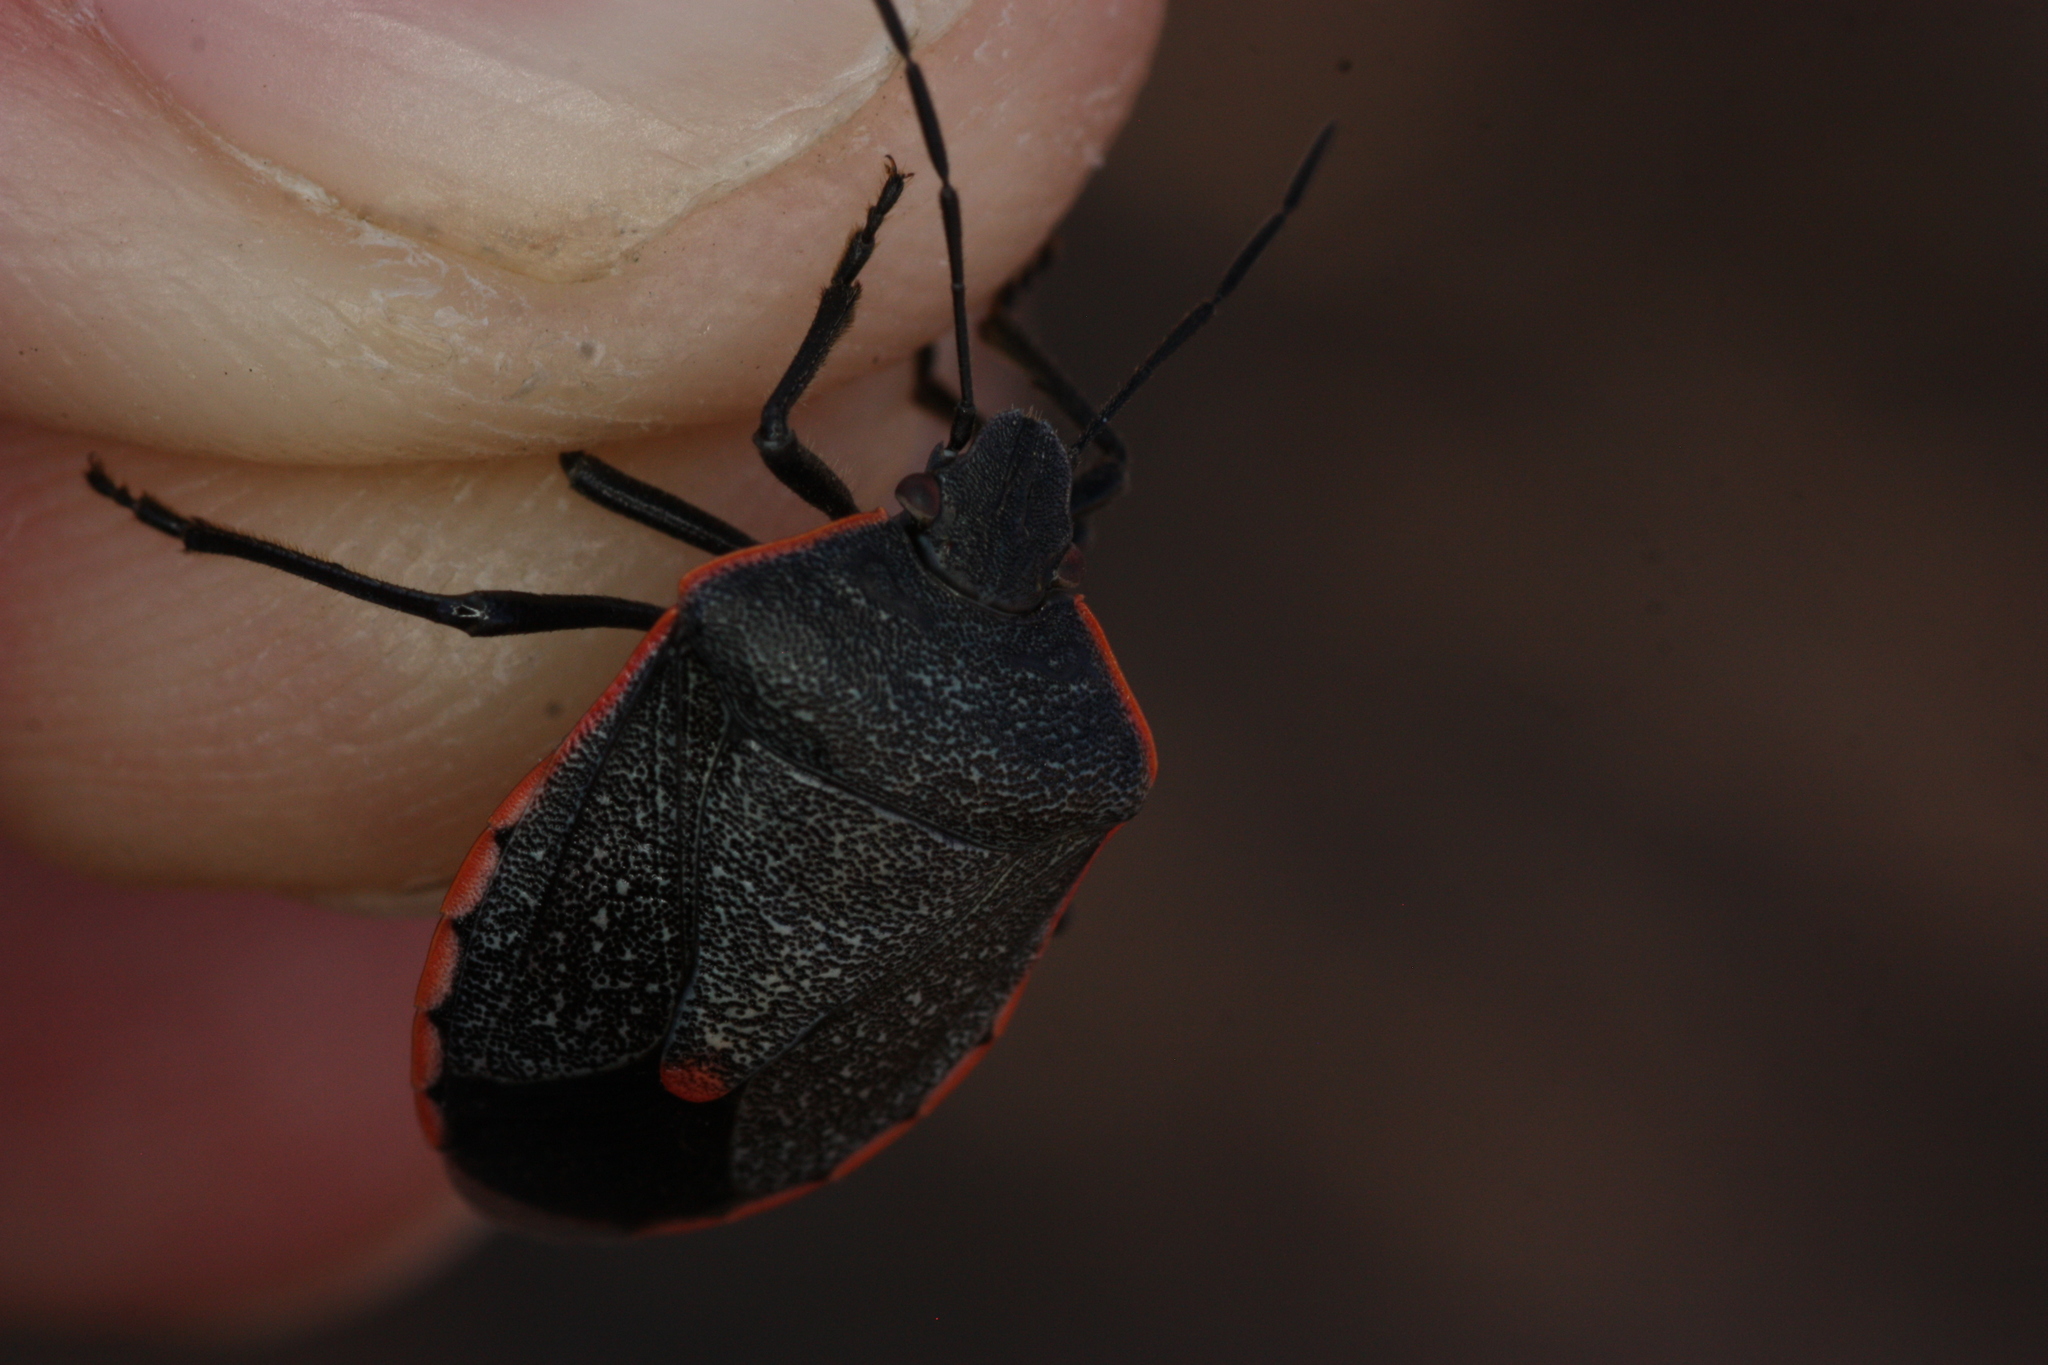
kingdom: Animalia
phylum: Arthropoda
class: Insecta
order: Hemiptera
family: Pentatomidae
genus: Chlorochroa
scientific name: Chlorochroa ligata
